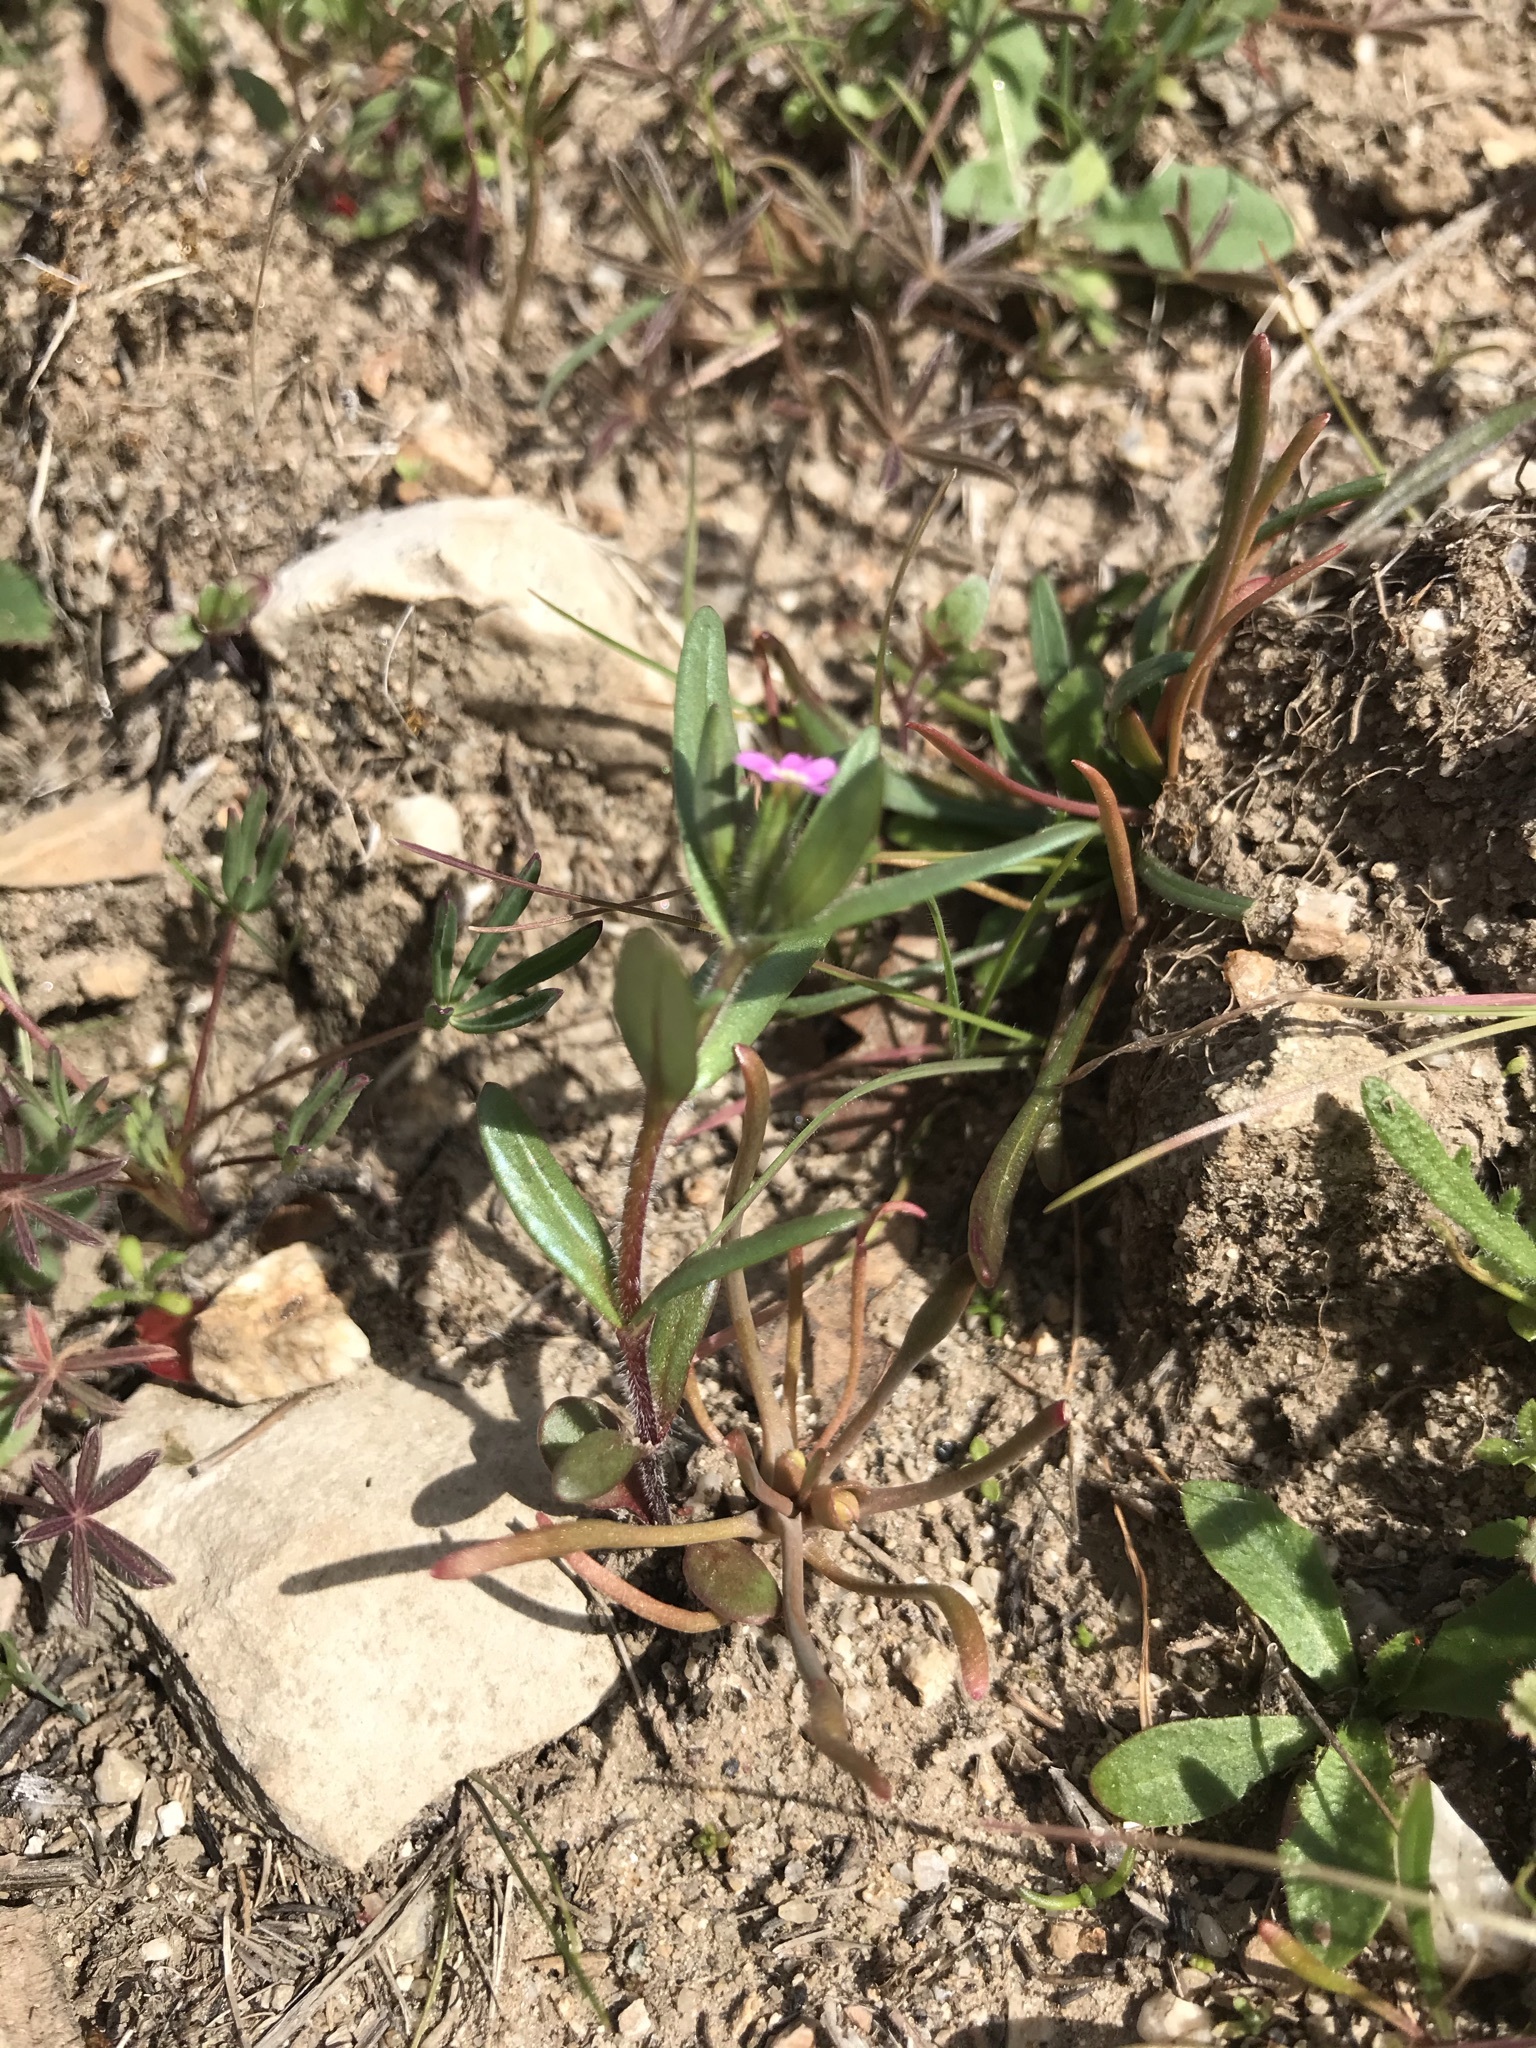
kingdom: Plantae
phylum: Tracheophyta
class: Magnoliopsida
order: Ericales
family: Polemoniaceae
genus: Phlox
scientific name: Phlox gracilis
